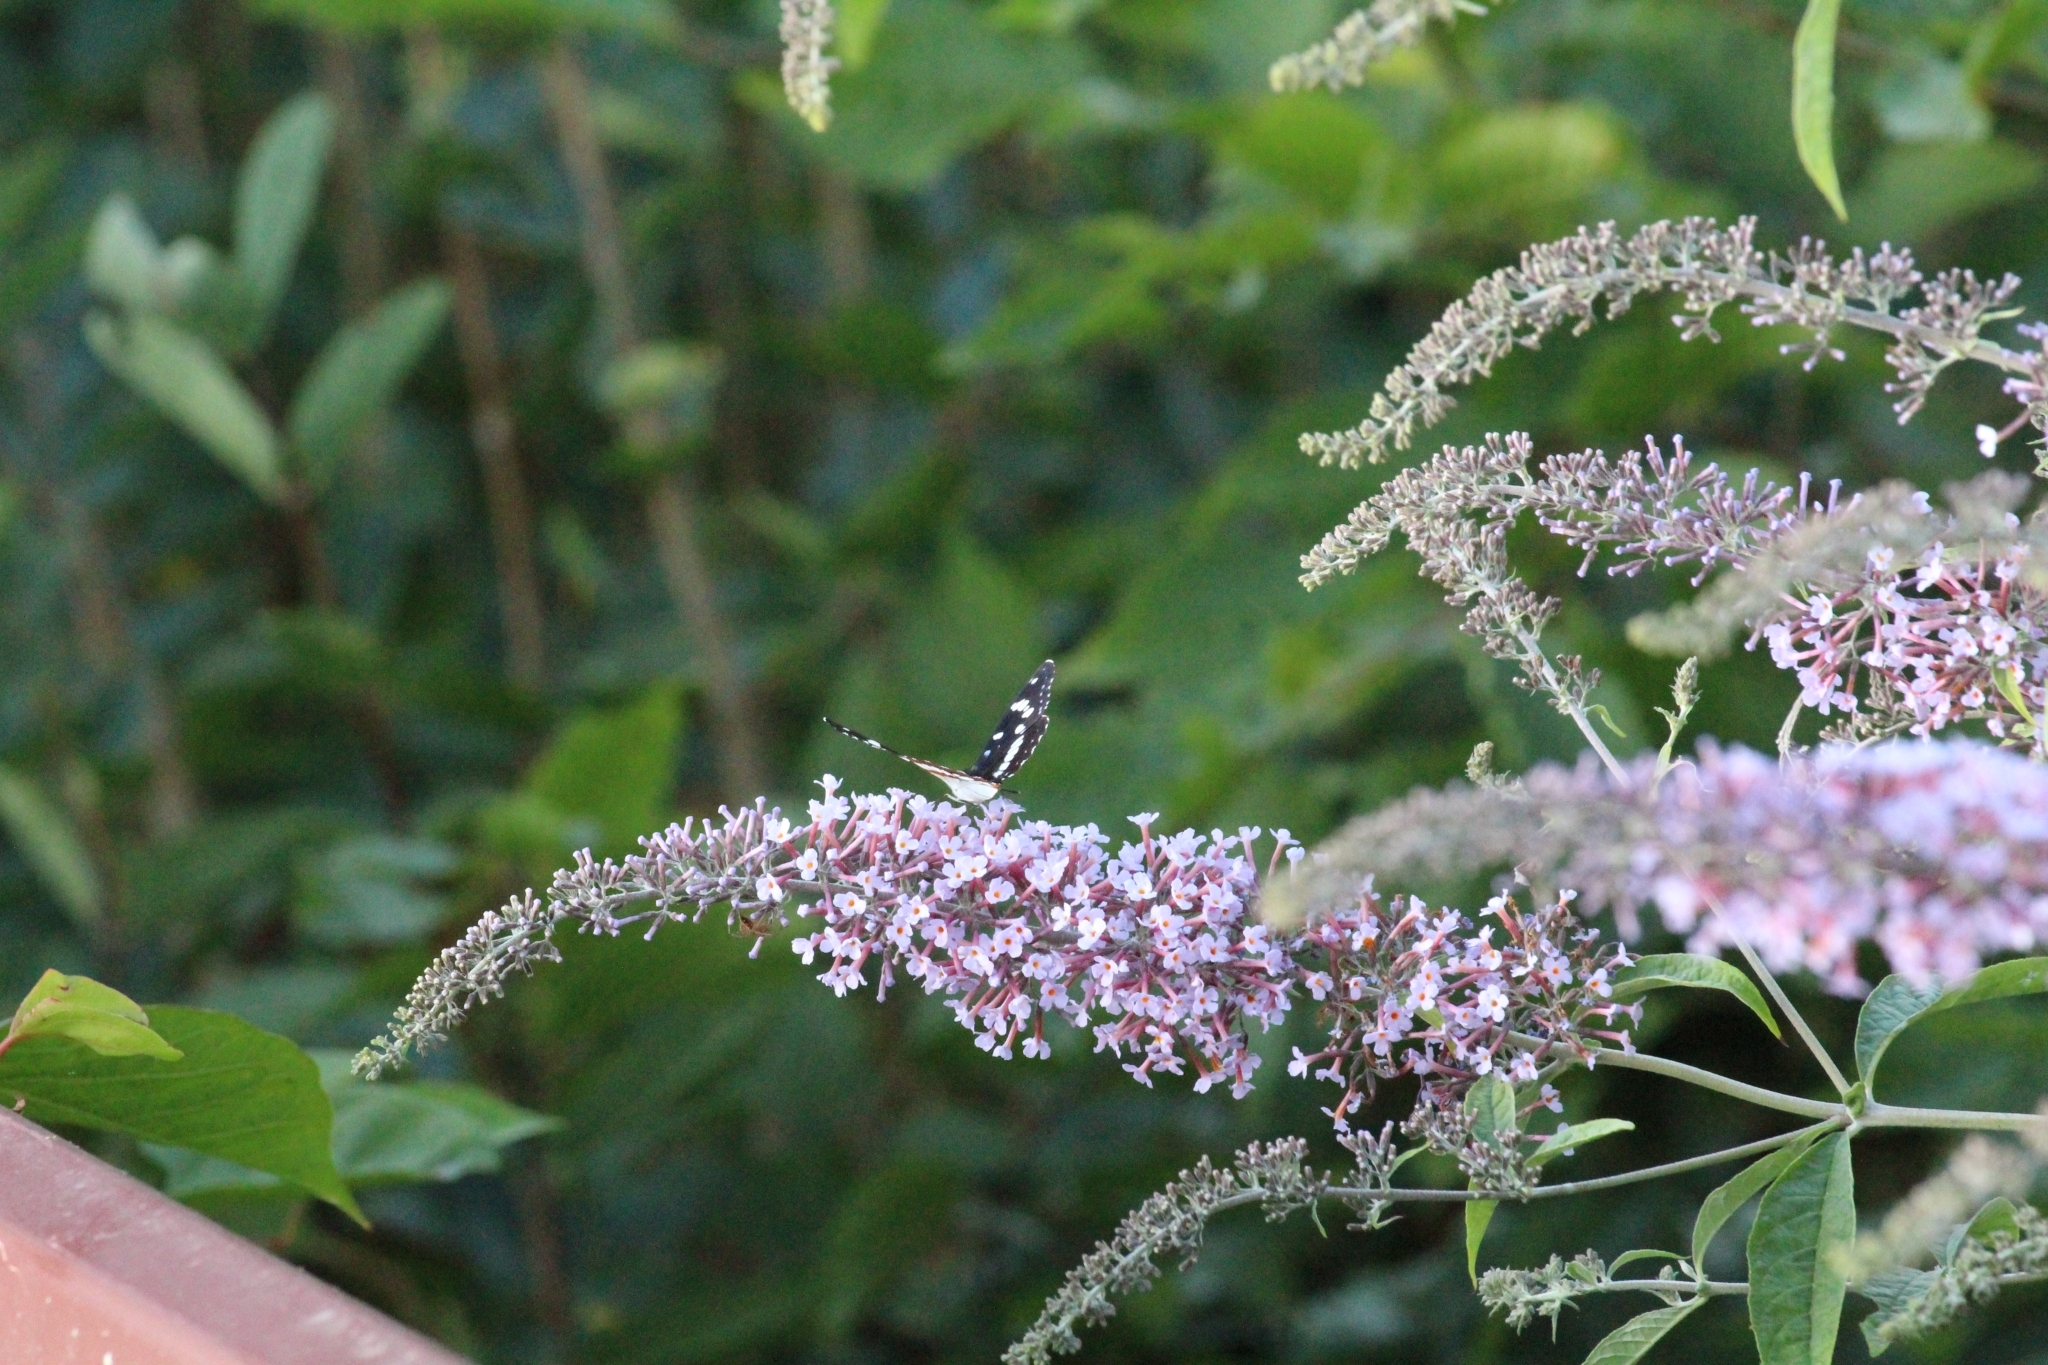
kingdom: Animalia
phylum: Arthropoda
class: Insecta
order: Lepidoptera
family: Nymphalidae
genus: Limenitis
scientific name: Limenitis reducta
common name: Southern white admiral
